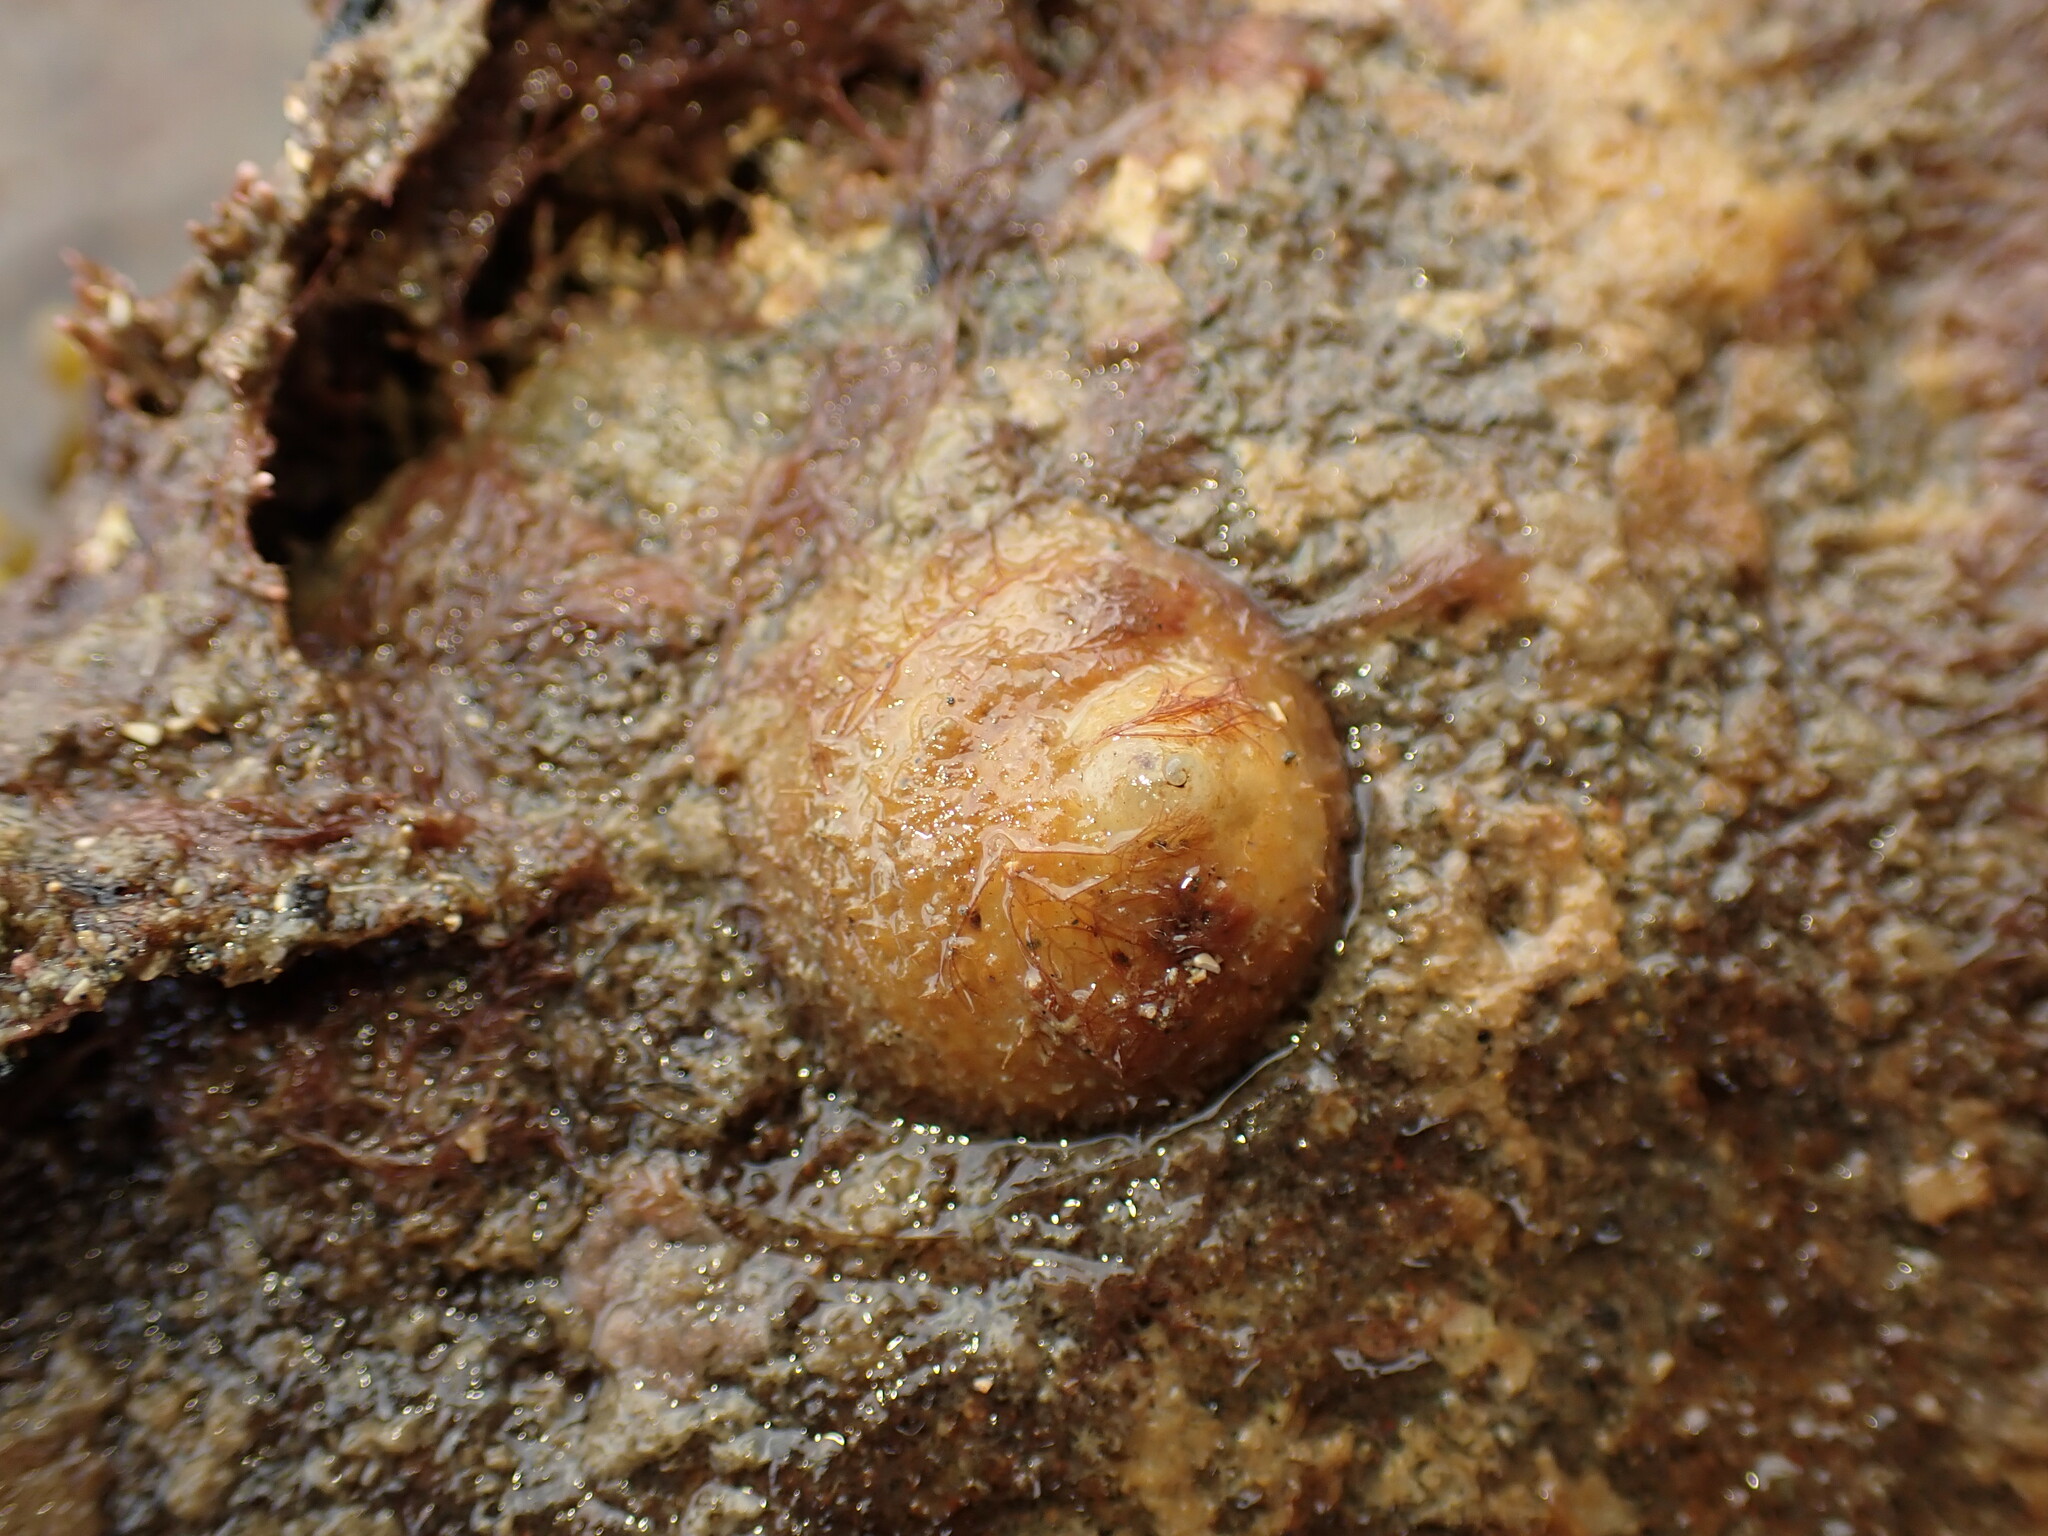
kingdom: Animalia
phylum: Mollusca
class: Gastropoda
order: Littorinimorpha
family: Calyptraeidae
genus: Sigapatella
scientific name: Sigapatella novaezelandiae
